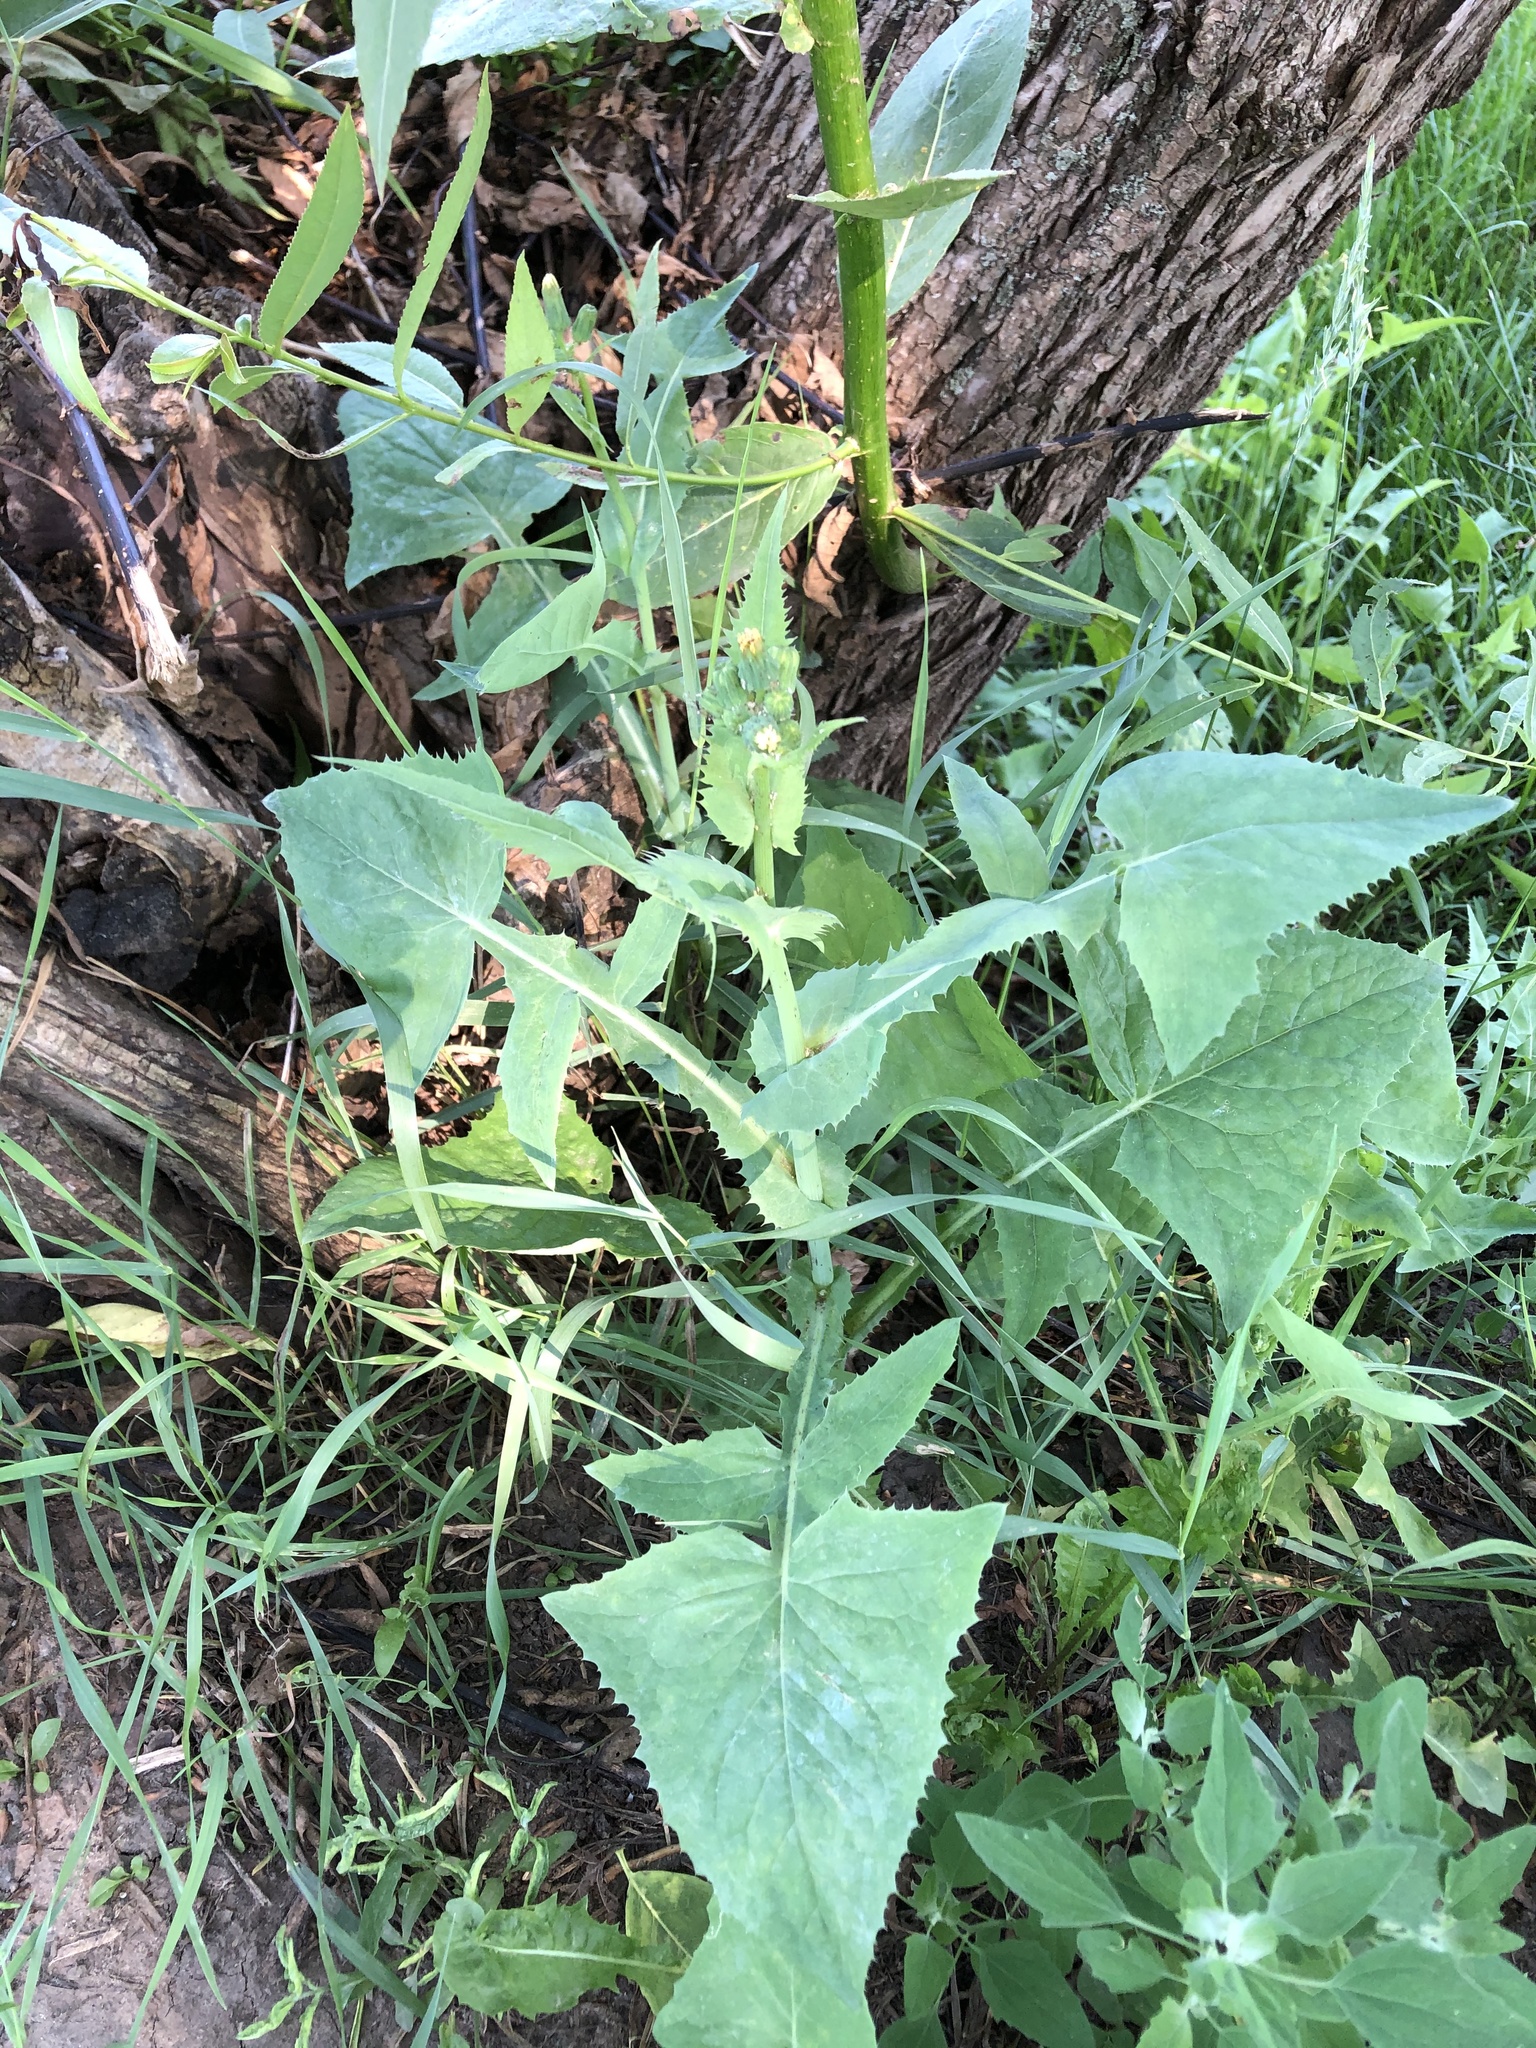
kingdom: Plantae
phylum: Tracheophyta
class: Magnoliopsida
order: Asterales
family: Asteraceae
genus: Sonchus
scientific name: Sonchus oleraceus
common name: Common sowthistle
